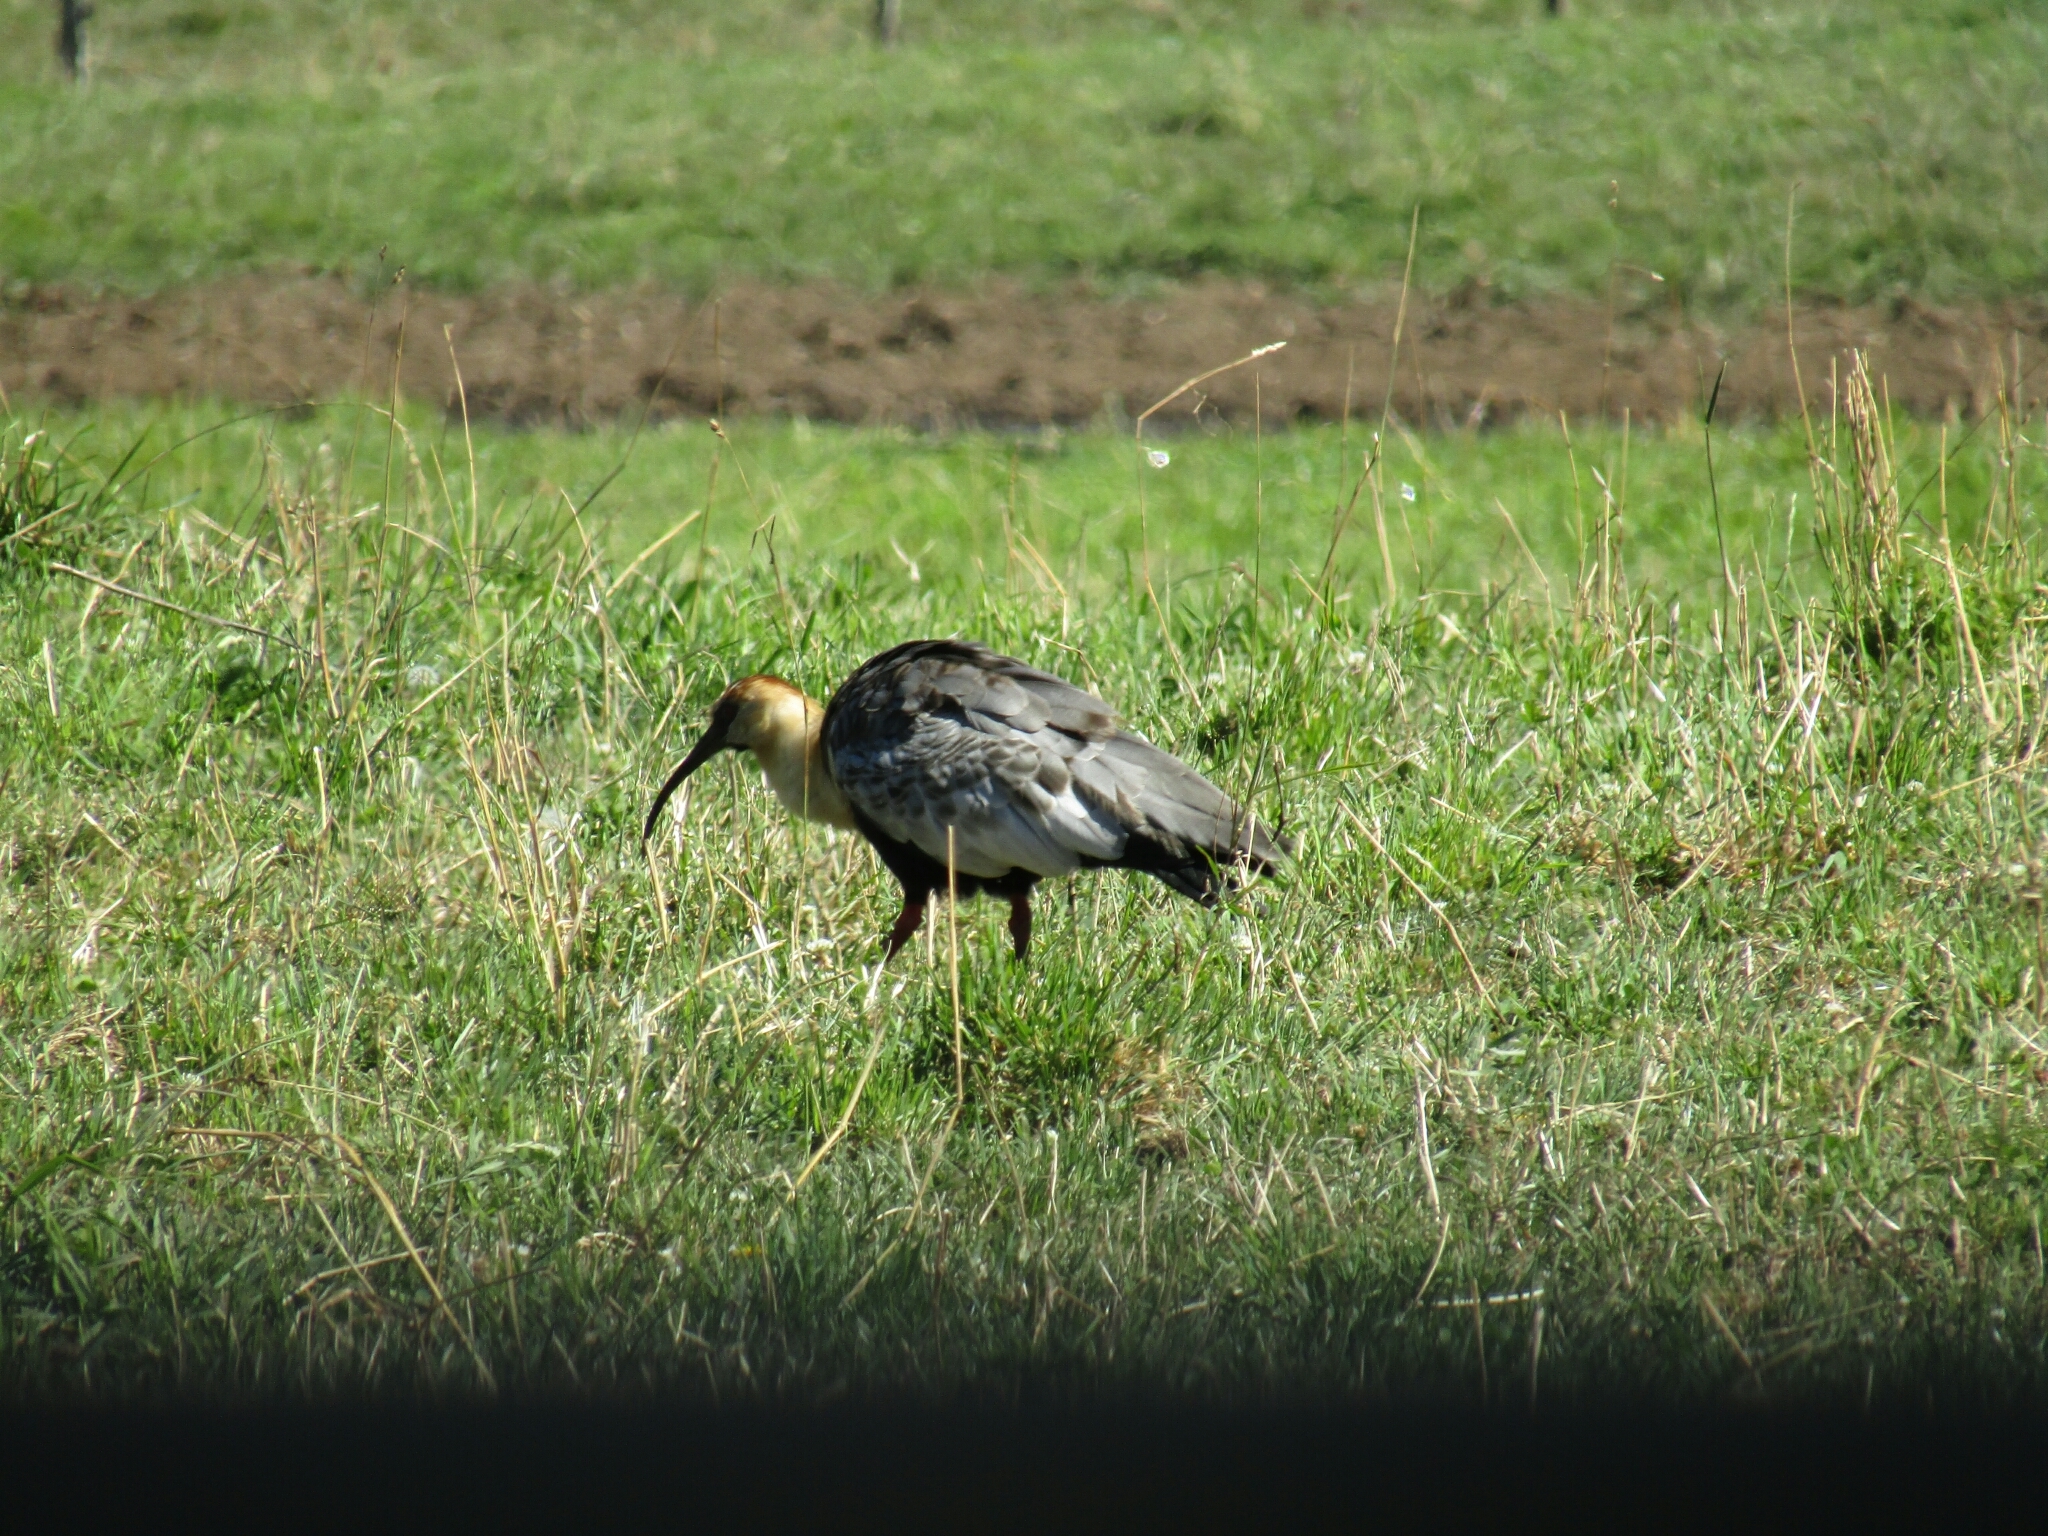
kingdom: Animalia
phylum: Chordata
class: Aves
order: Pelecaniformes
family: Threskiornithidae
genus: Theristicus
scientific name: Theristicus melanopis
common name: Black-faced ibis
